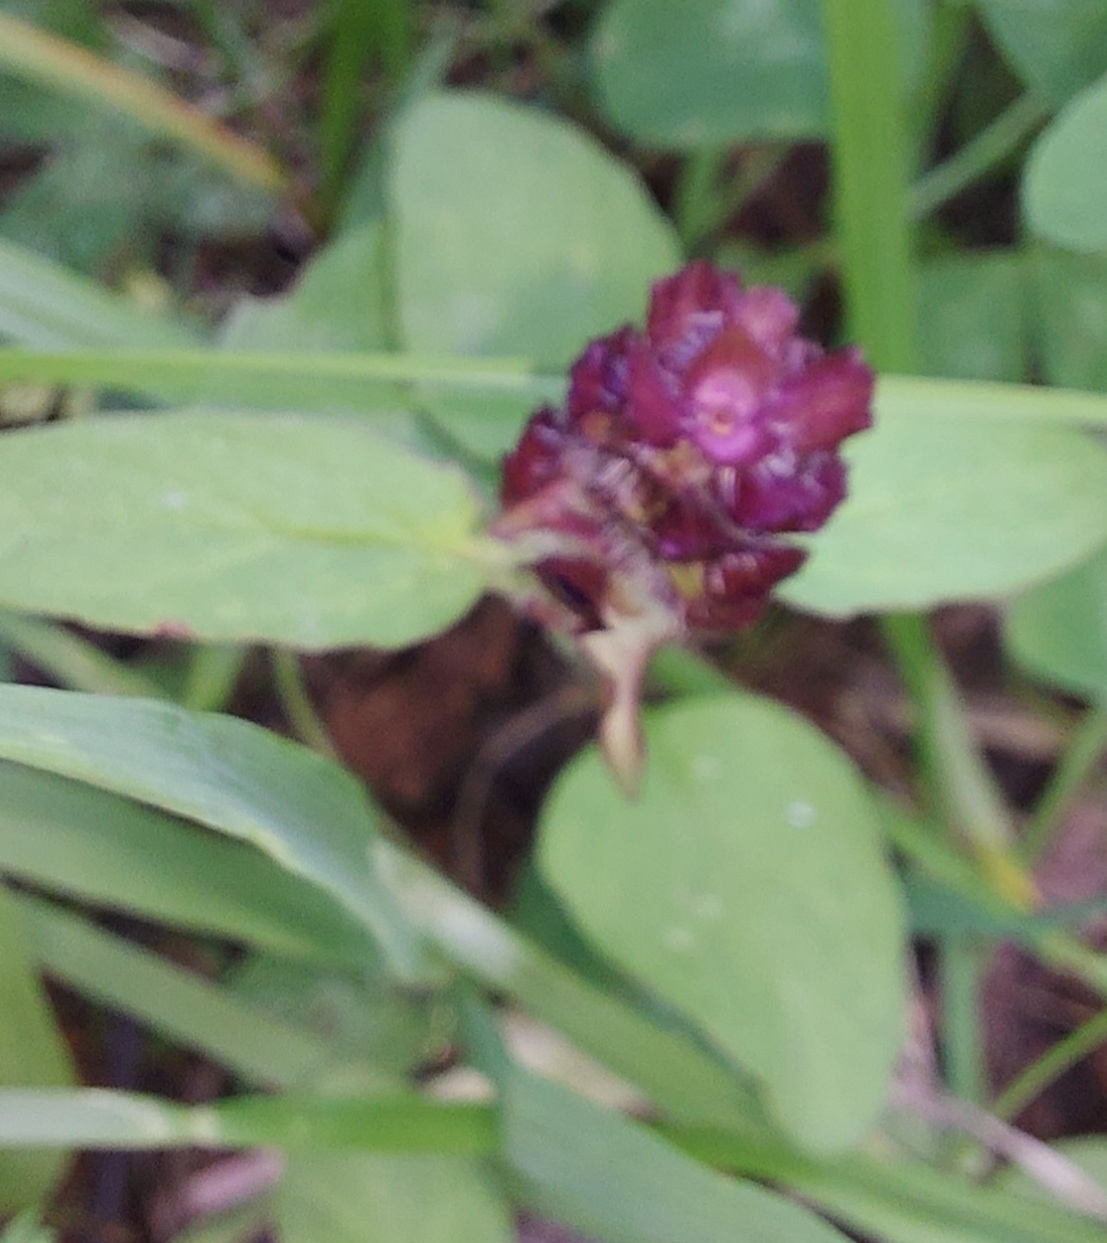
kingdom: Plantae
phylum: Tracheophyta
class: Magnoliopsida
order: Lamiales
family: Lamiaceae
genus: Prunella
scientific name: Prunella vulgaris
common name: Heal-all
